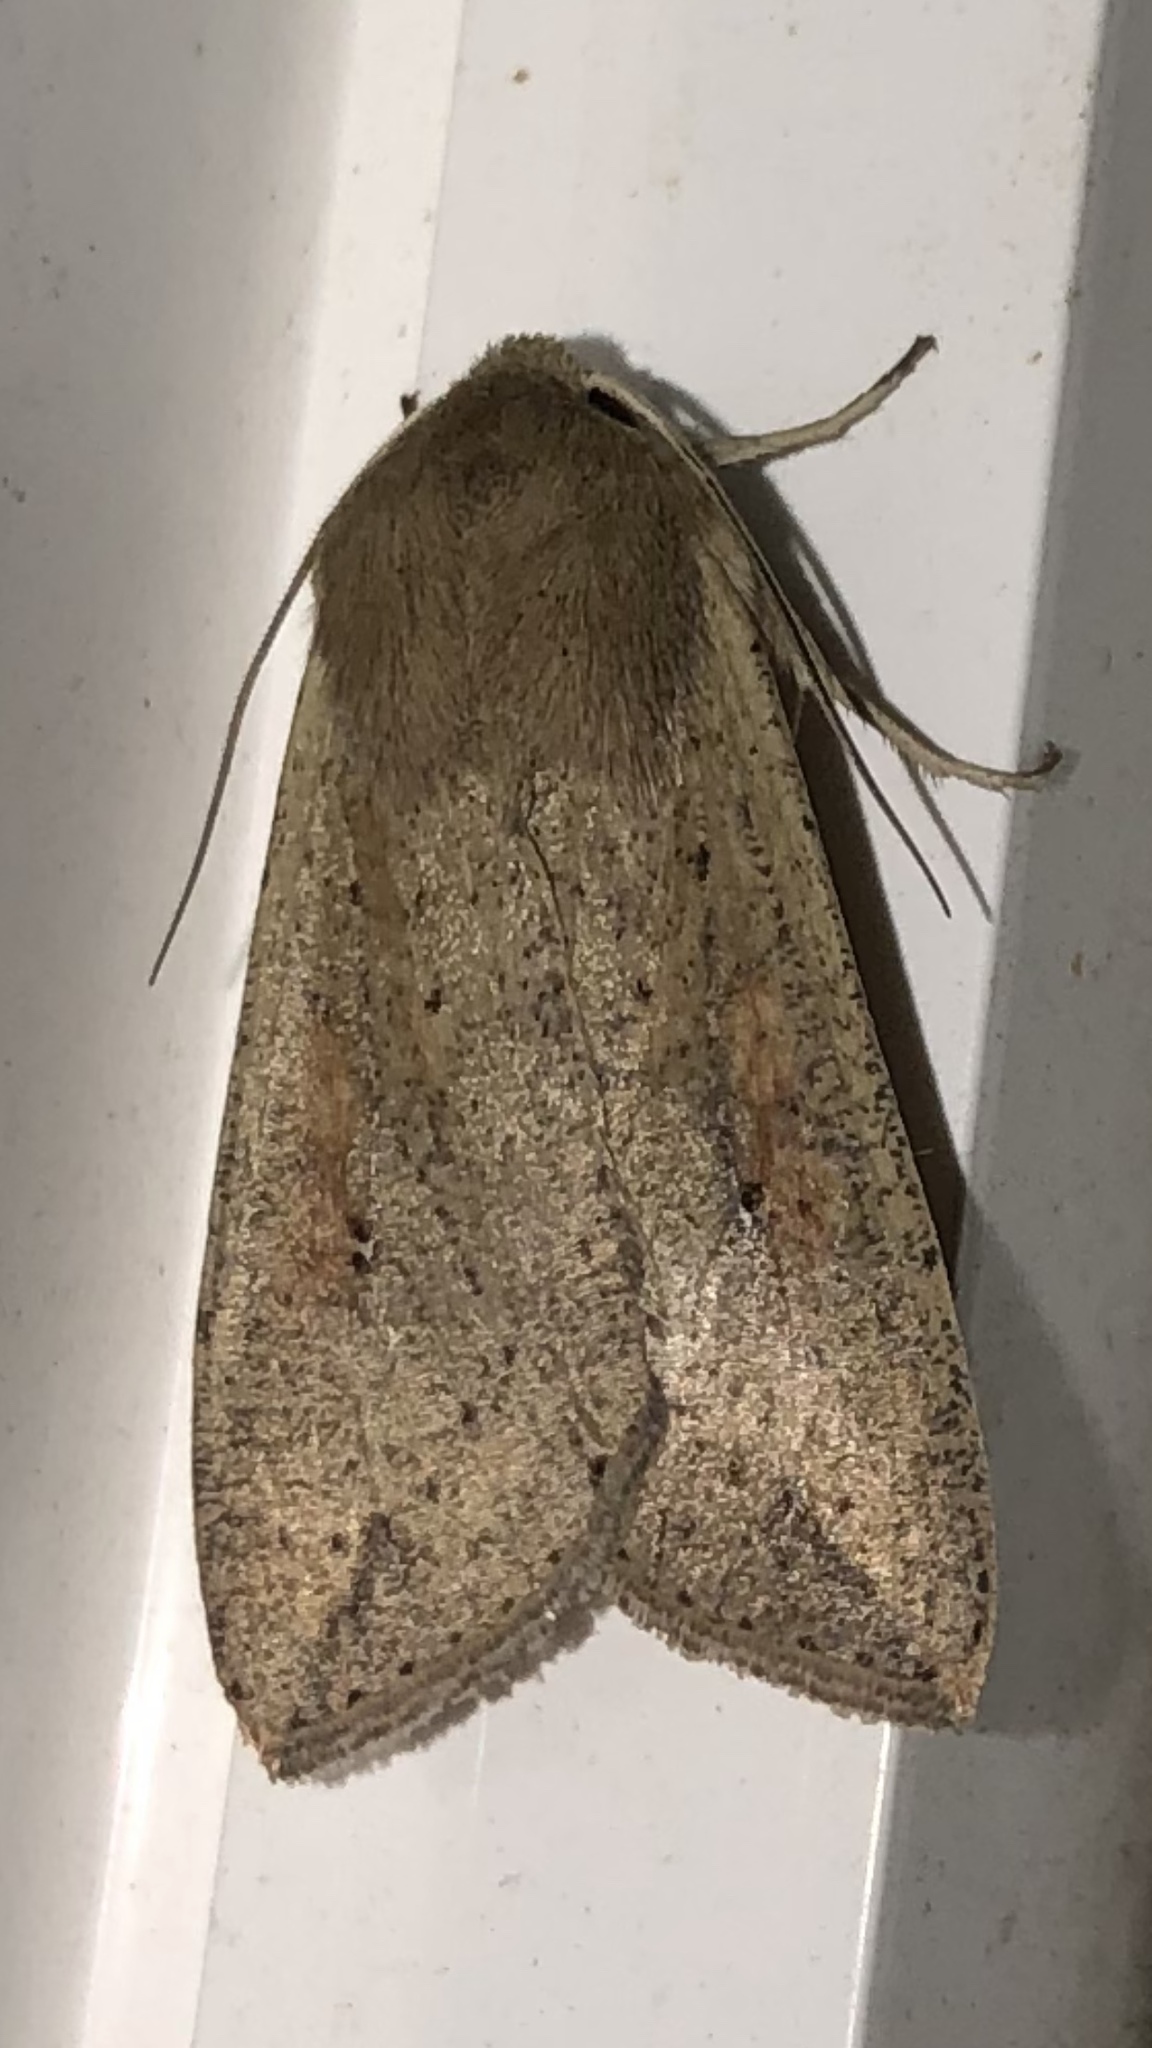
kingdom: Animalia
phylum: Arthropoda
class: Insecta
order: Lepidoptera
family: Noctuidae
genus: Mythimna
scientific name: Mythimna unipuncta
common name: White-speck
